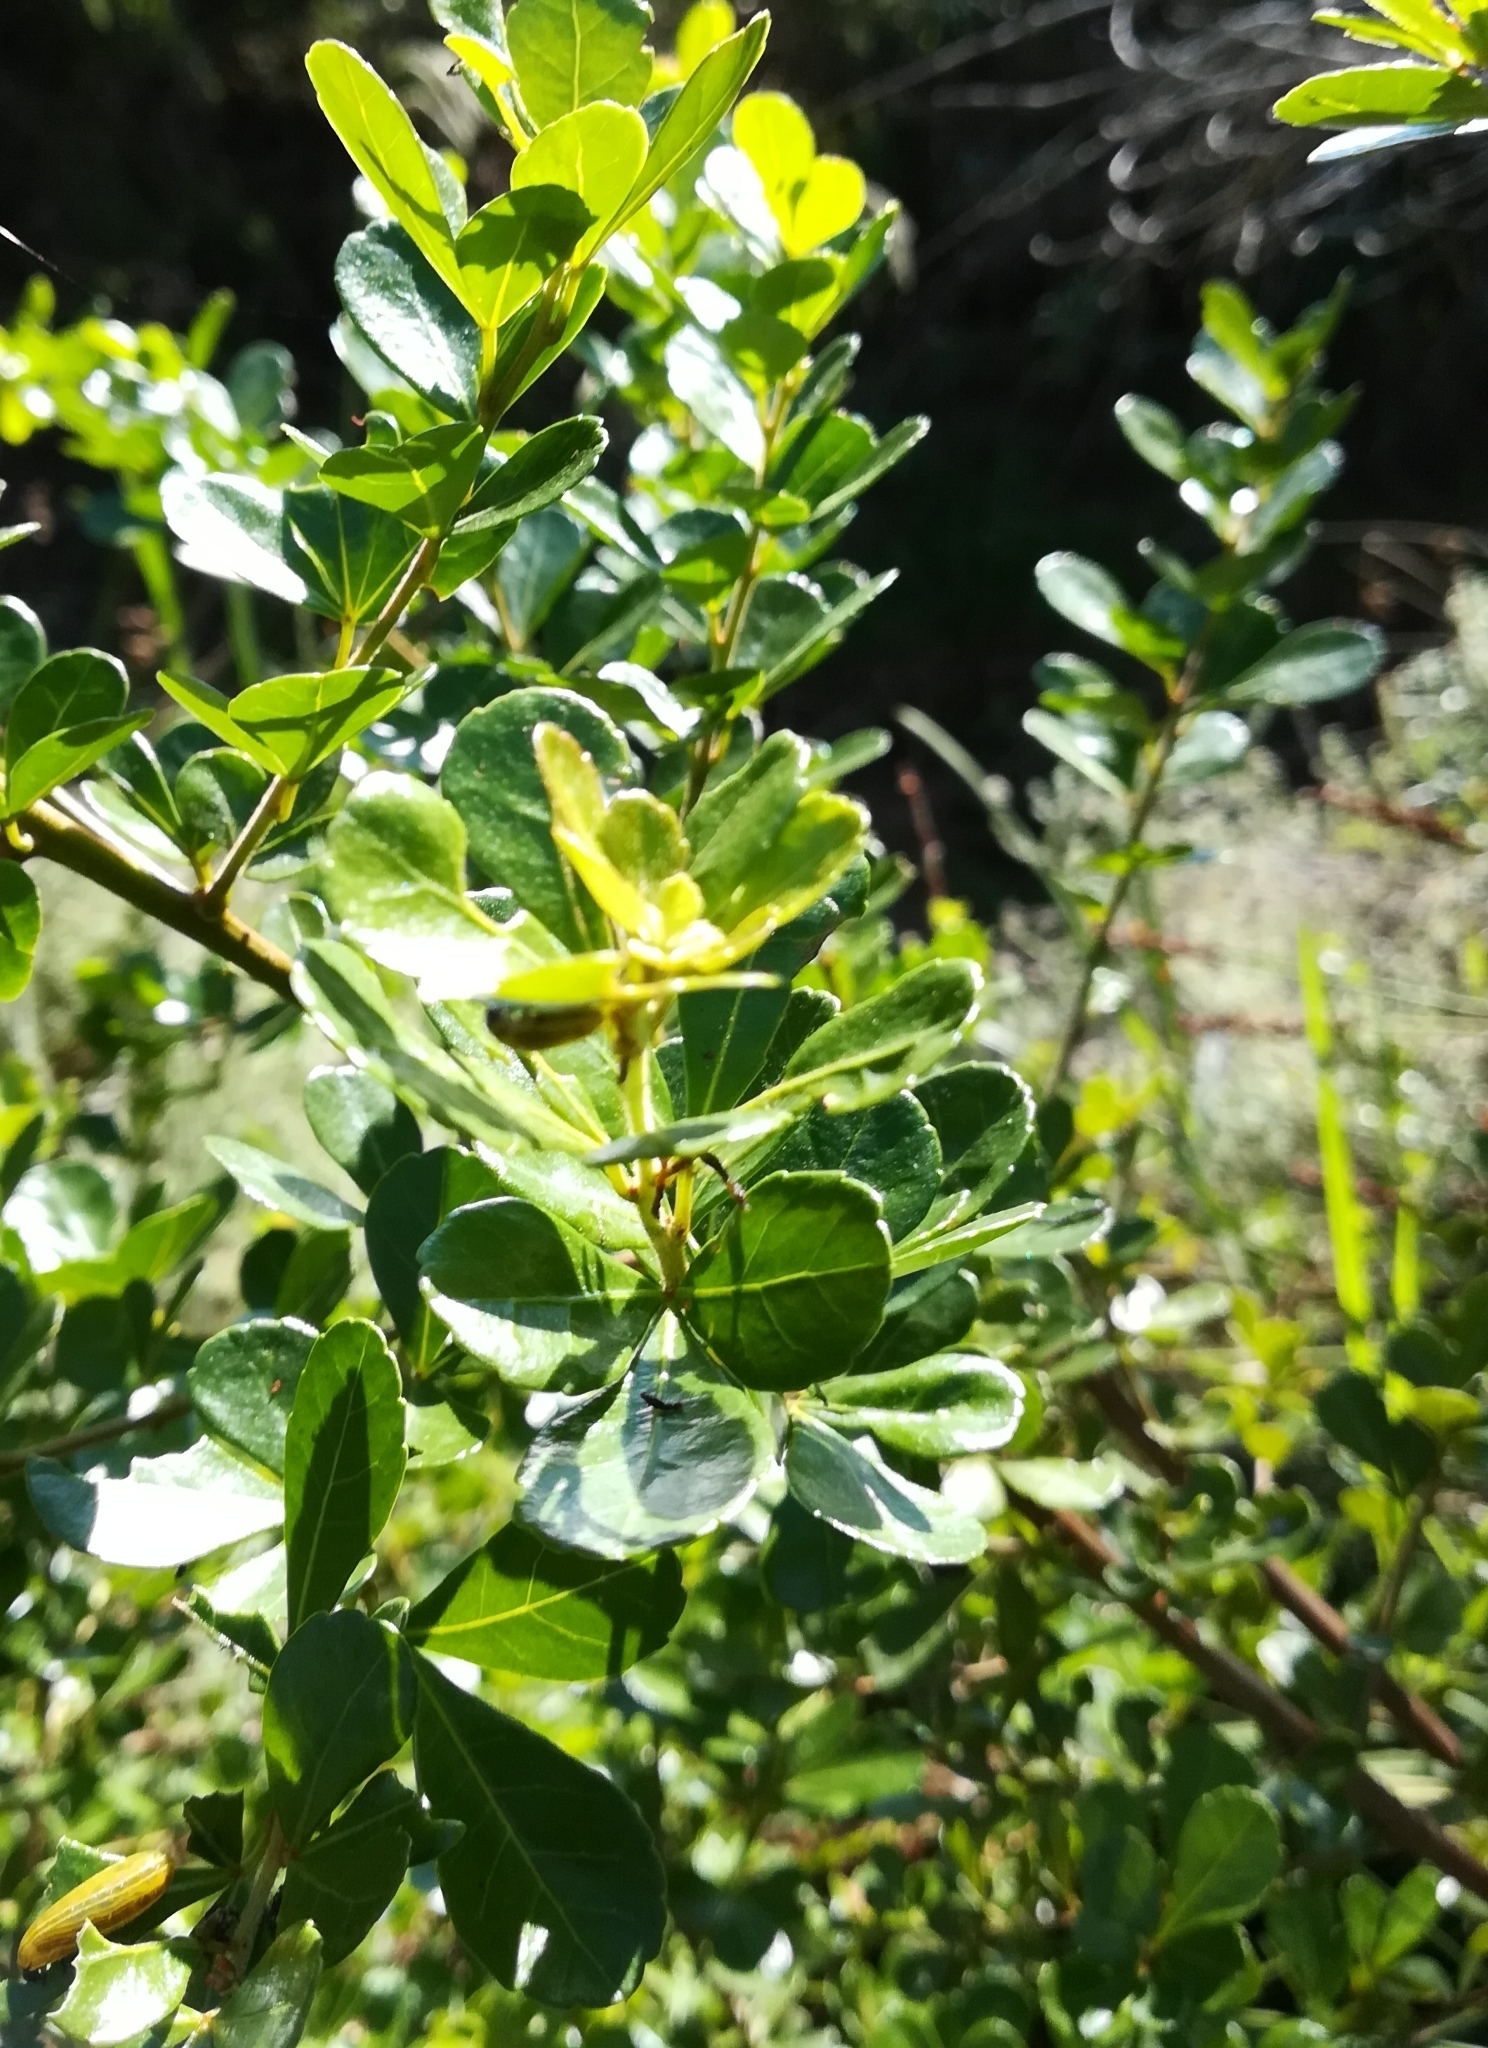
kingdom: Plantae
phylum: Tracheophyta
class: Magnoliopsida
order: Sapindales
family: Anacardiaceae
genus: Searsia
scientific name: Searsia crenata
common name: Crowberry
